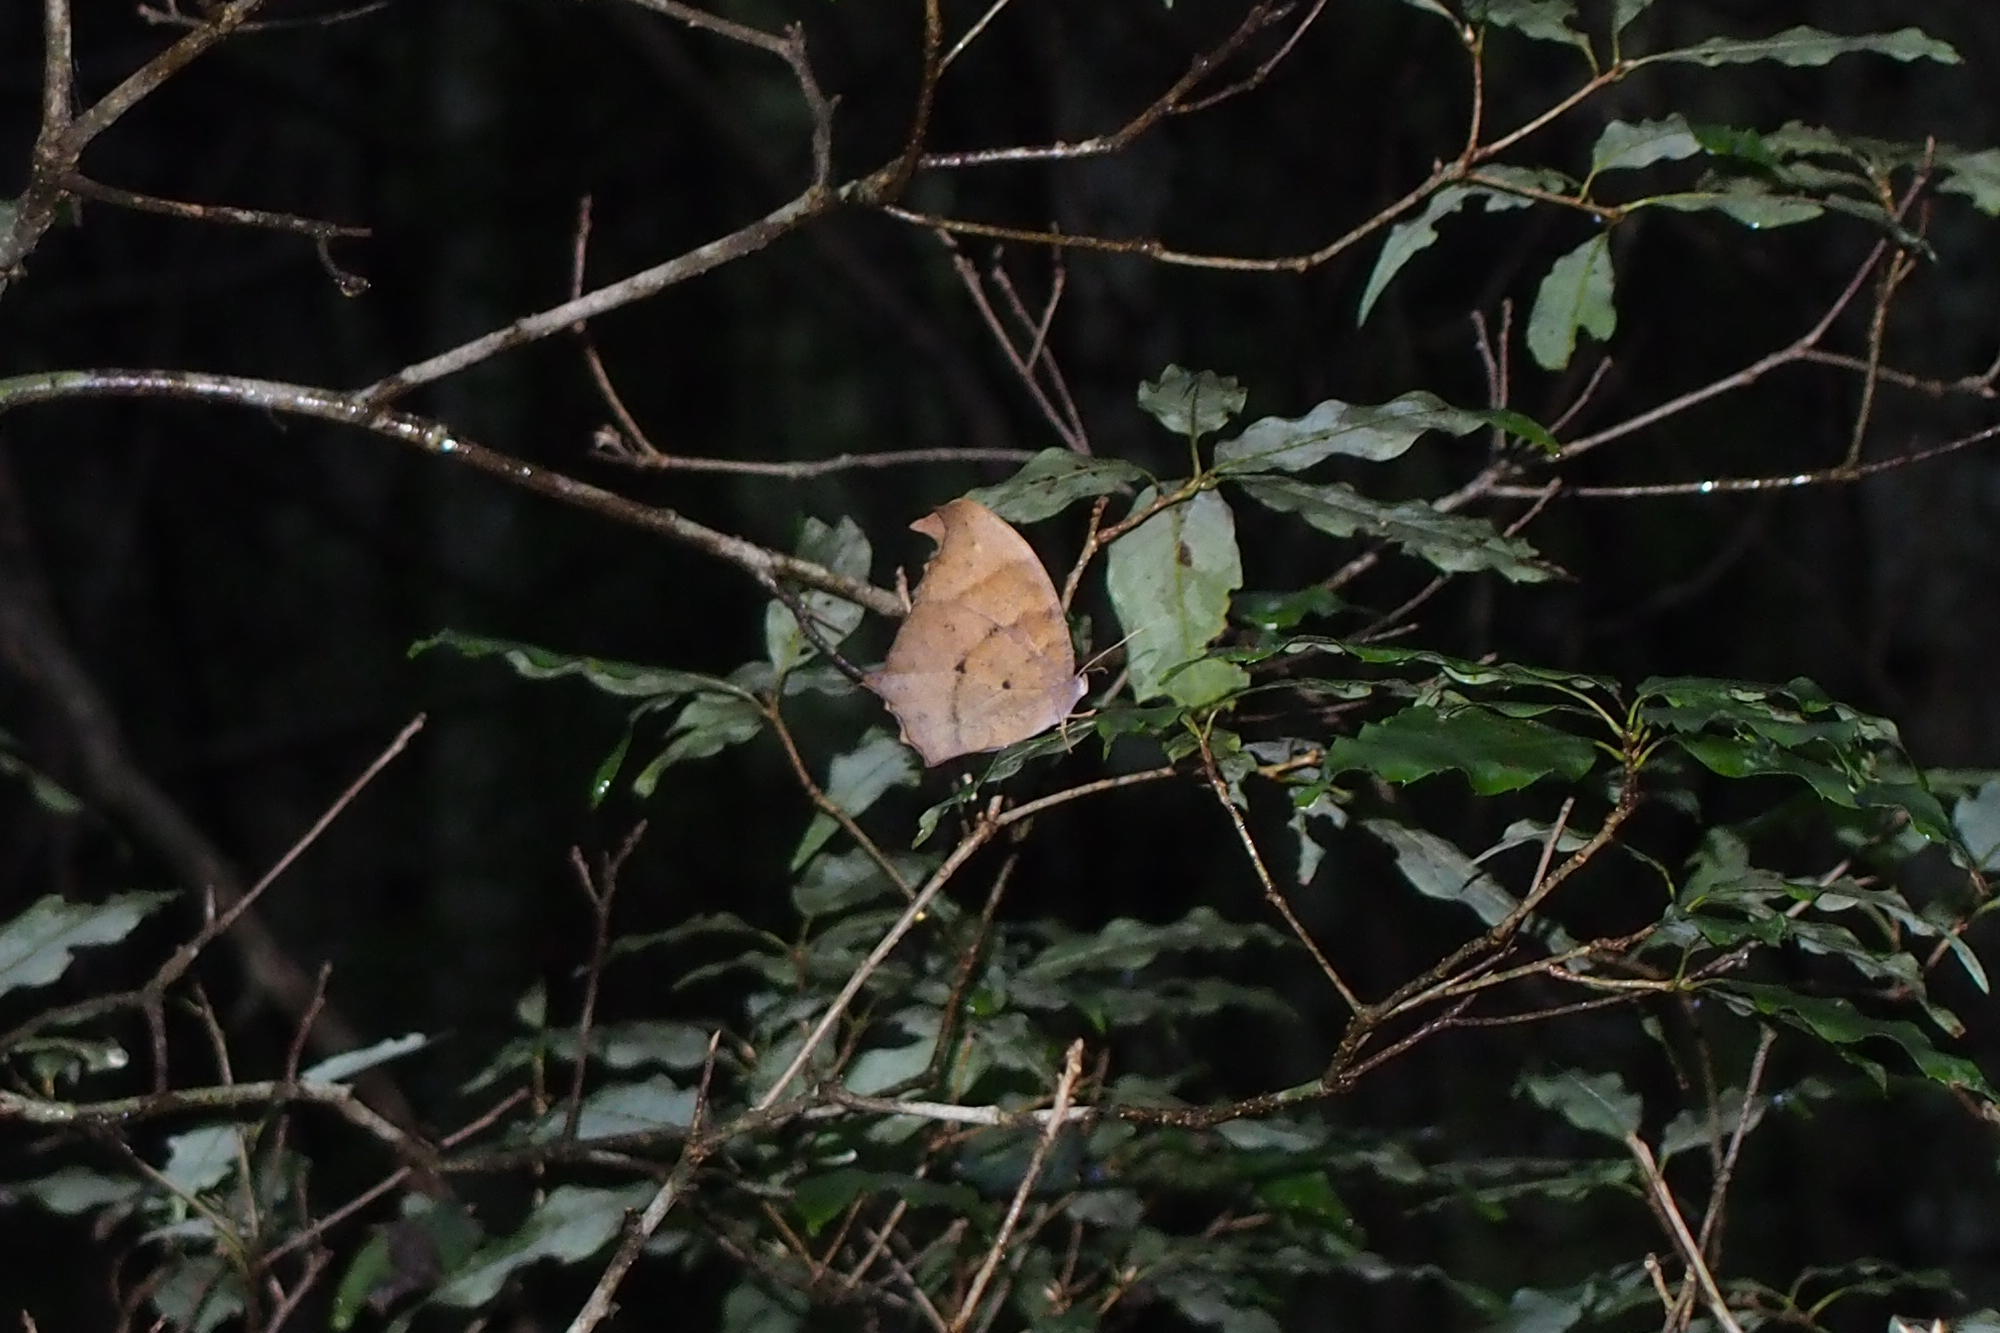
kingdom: Animalia
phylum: Arthropoda
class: Insecta
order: Lepidoptera
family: Nymphalidae
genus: Melanitis
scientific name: Melanitis phedima
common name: Dark evening brown
